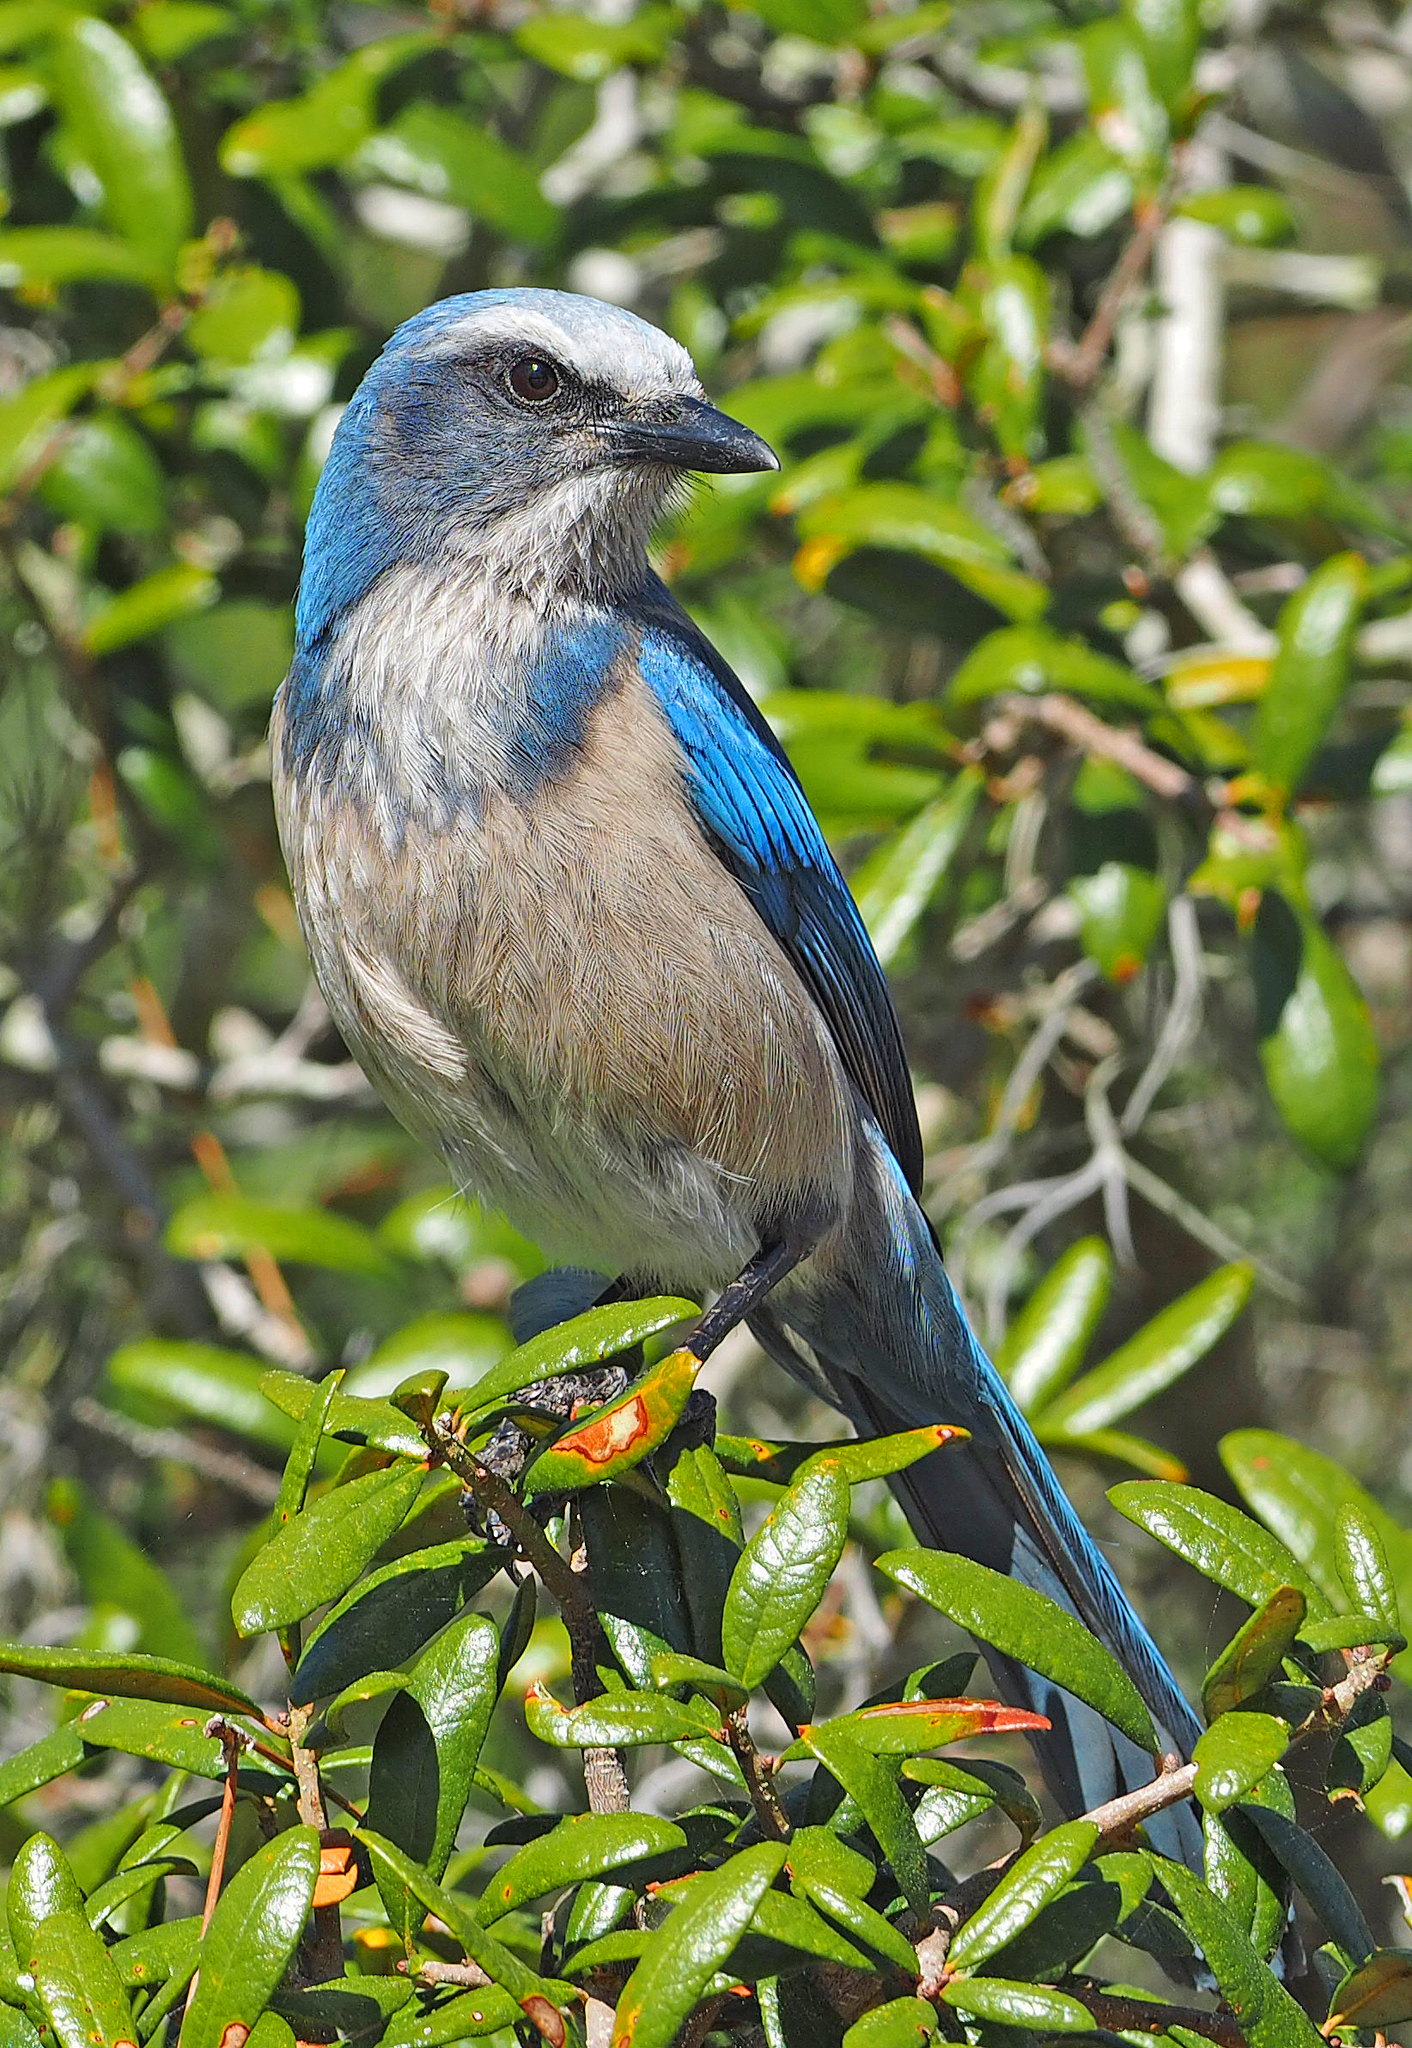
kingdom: Animalia
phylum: Chordata
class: Aves
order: Passeriformes
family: Corvidae
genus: Aphelocoma
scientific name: Aphelocoma coerulescens
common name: Florida scrub jay
